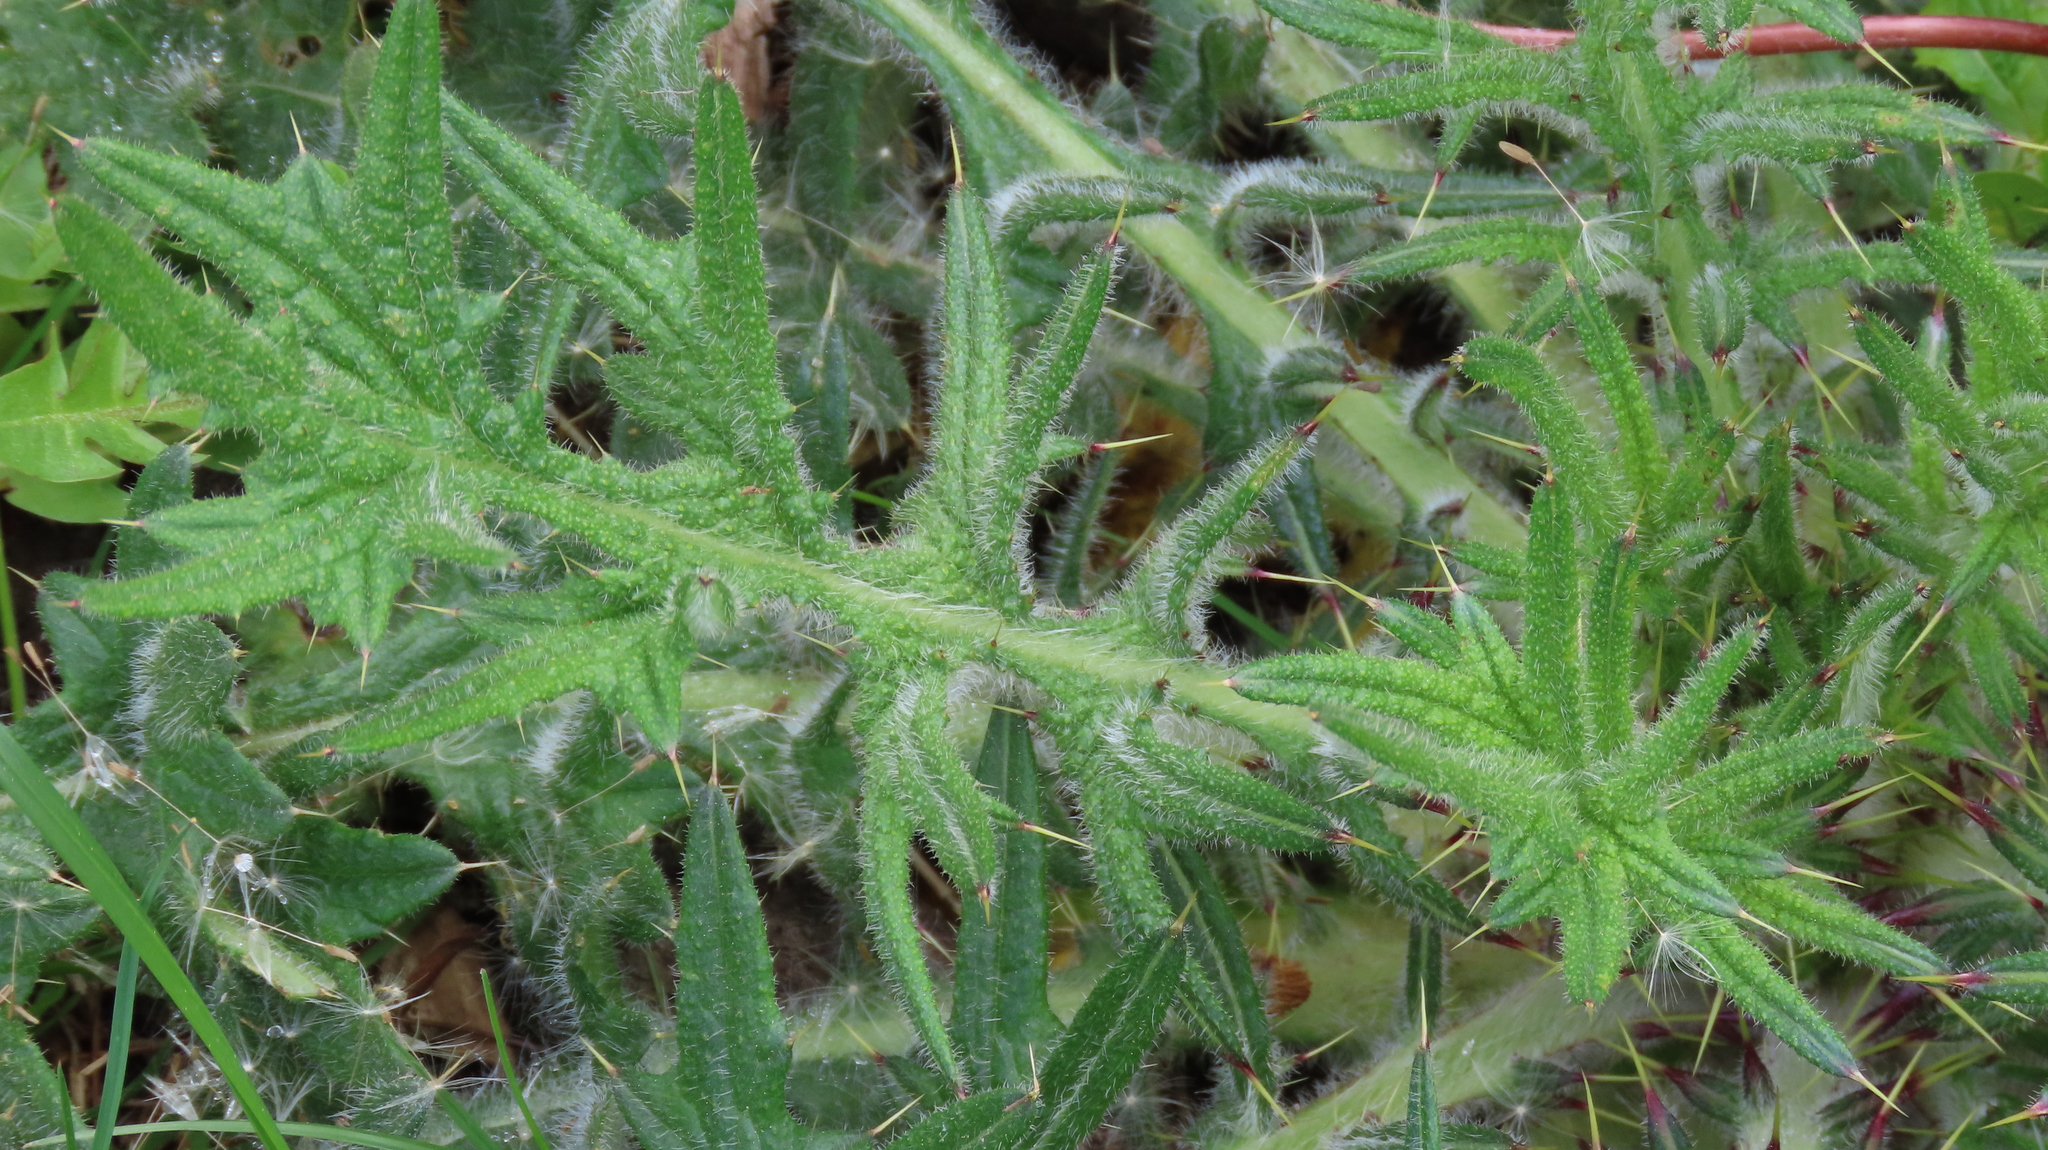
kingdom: Plantae
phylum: Tracheophyta
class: Magnoliopsida
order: Asterales
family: Asteraceae
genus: Cirsium
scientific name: Cirsium vulgare
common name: Bull thistle
